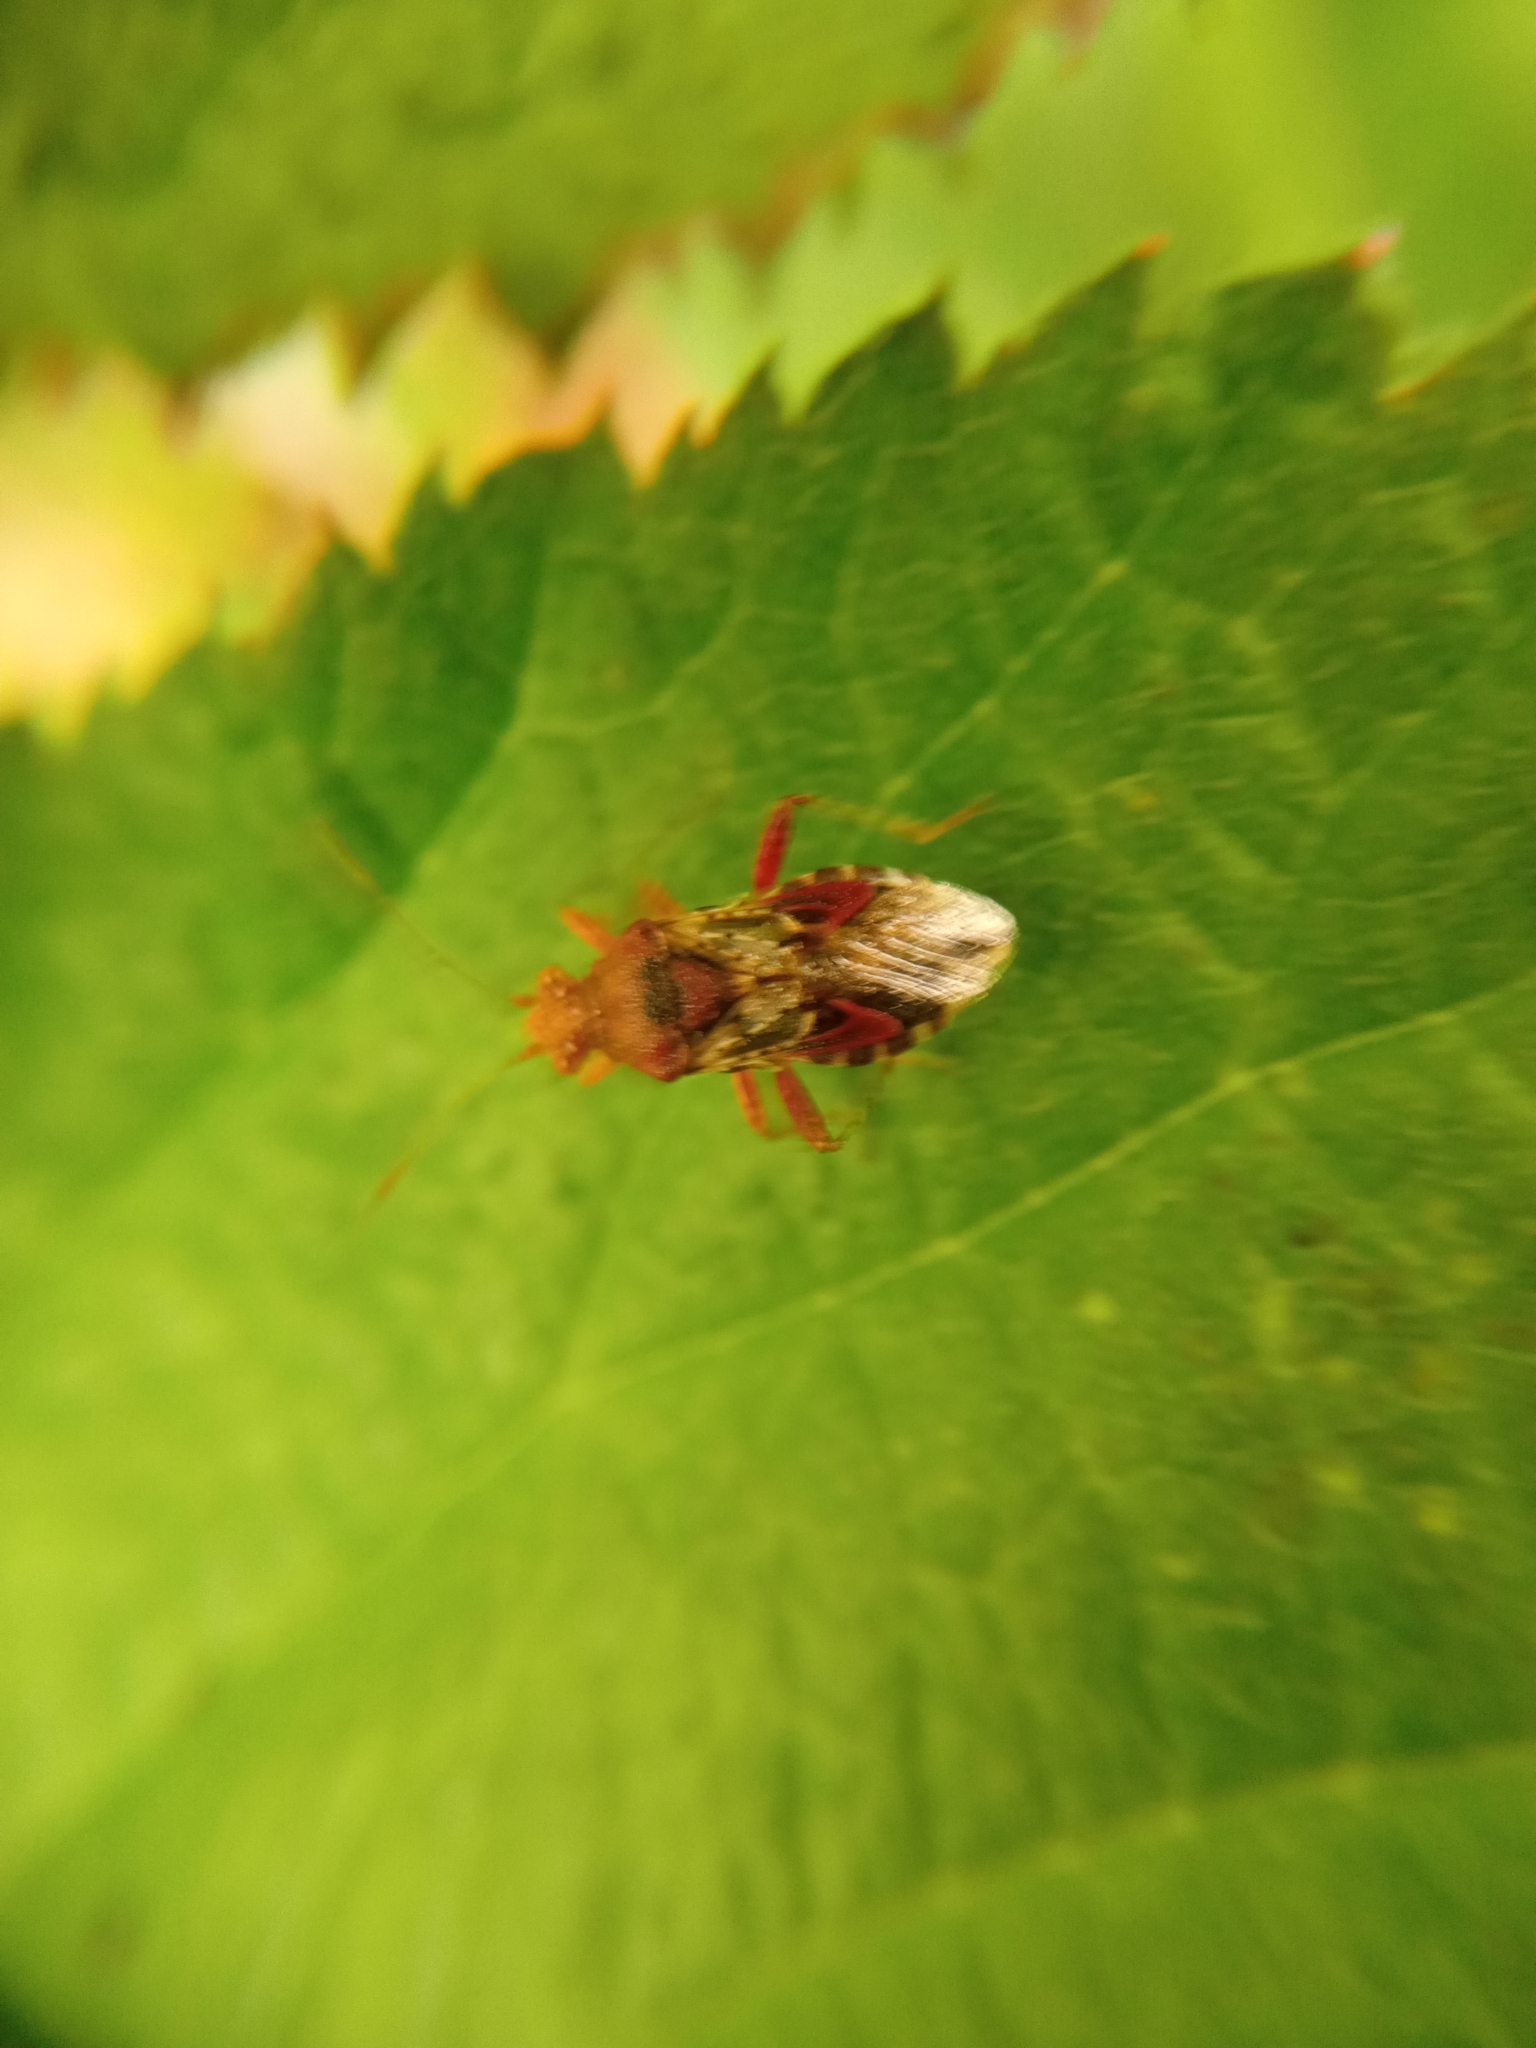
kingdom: Animalia
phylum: Arthropoda
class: Insecta
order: Hemiptera
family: Rhopalidae
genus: Rhopalus
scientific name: Rhopalus subrufus
